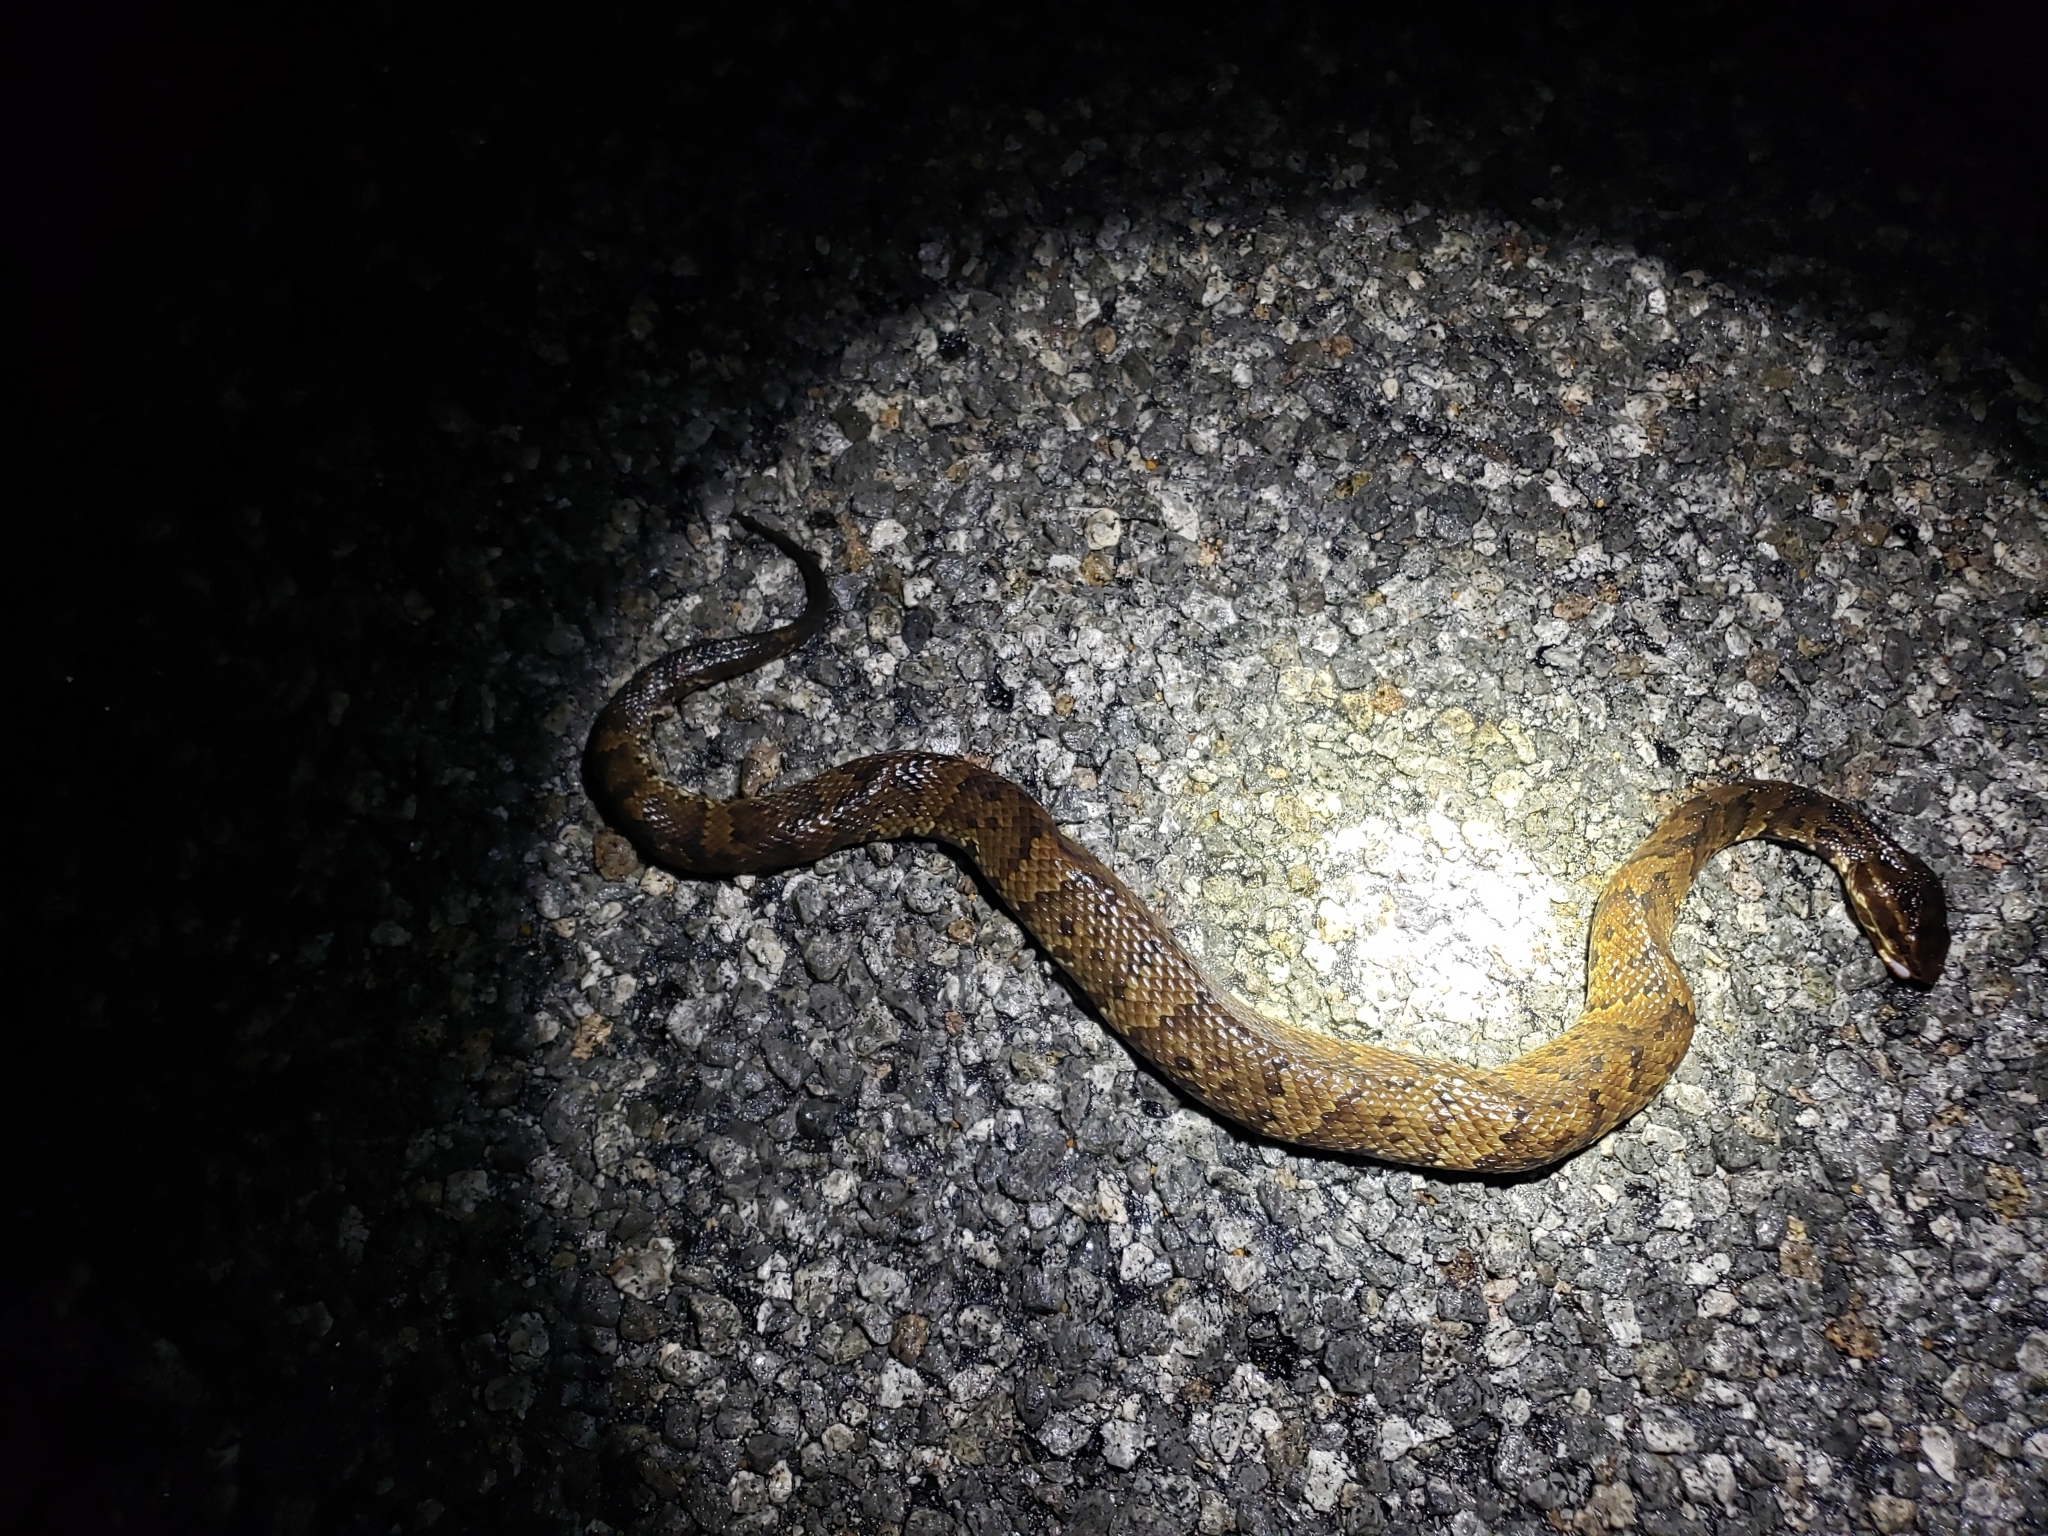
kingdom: Animalia
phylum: Chordata
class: Squamata
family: Viperidae
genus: Agkistrodon
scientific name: Agkistrodon piscivorus
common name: Cottonmouth
